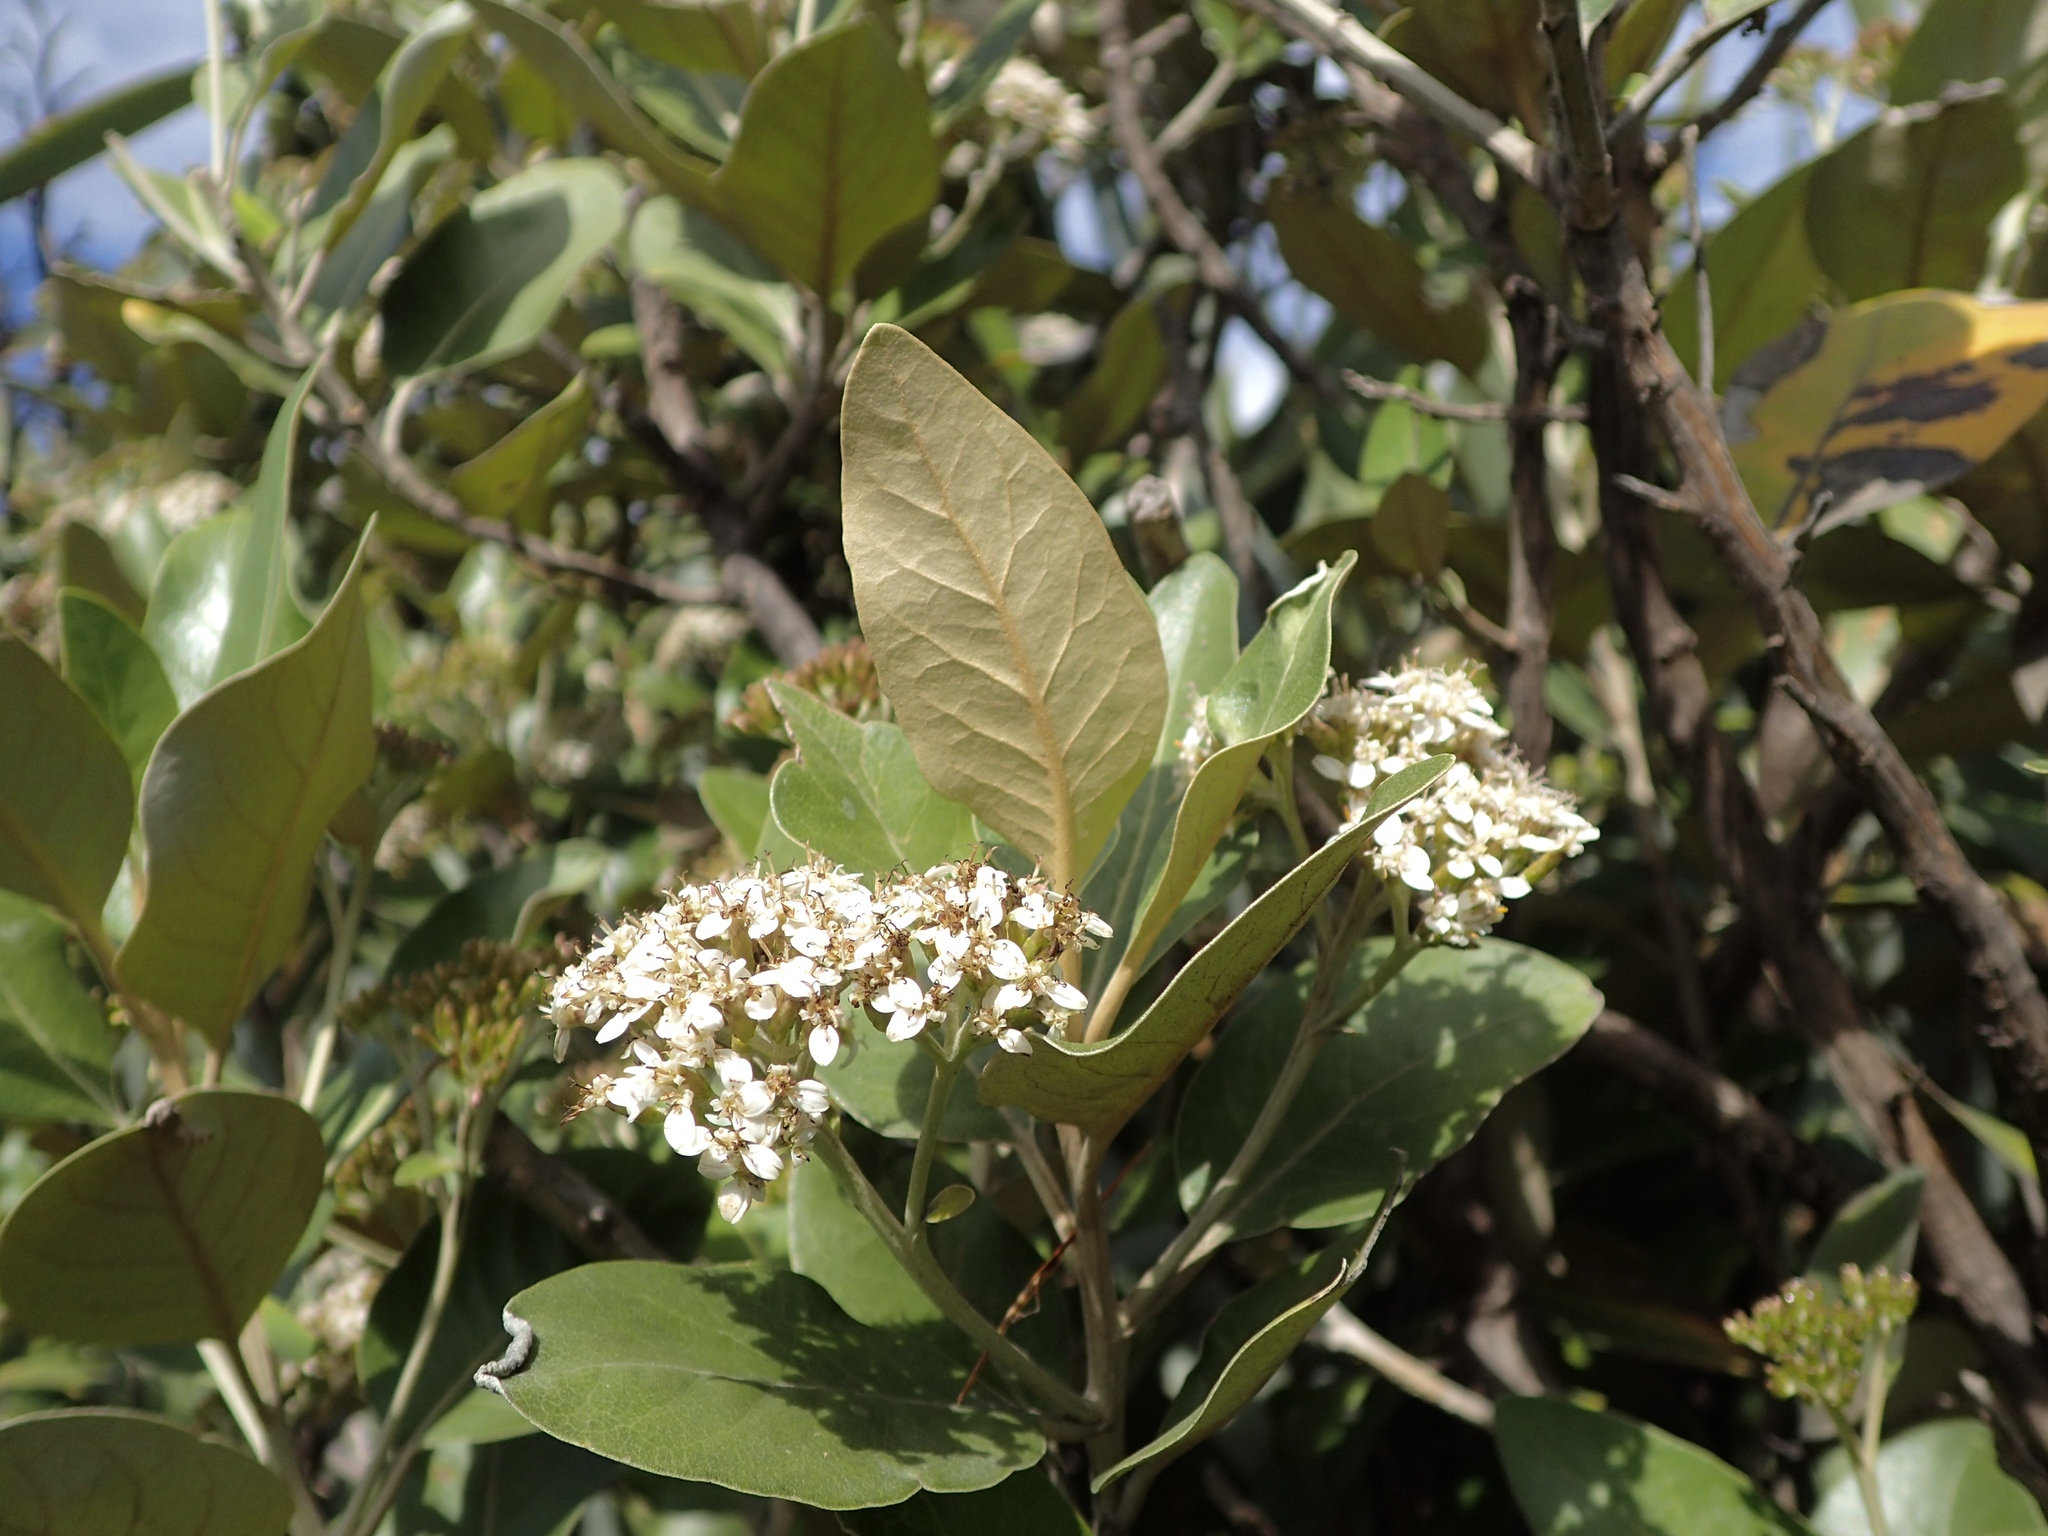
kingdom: Plantae
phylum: Tracheophyta
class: Magnoliopsida
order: Asterales
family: Asteraceae
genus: Olearia
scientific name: Olearia avicenniifolia
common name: Mangrove-leaf daisybush
